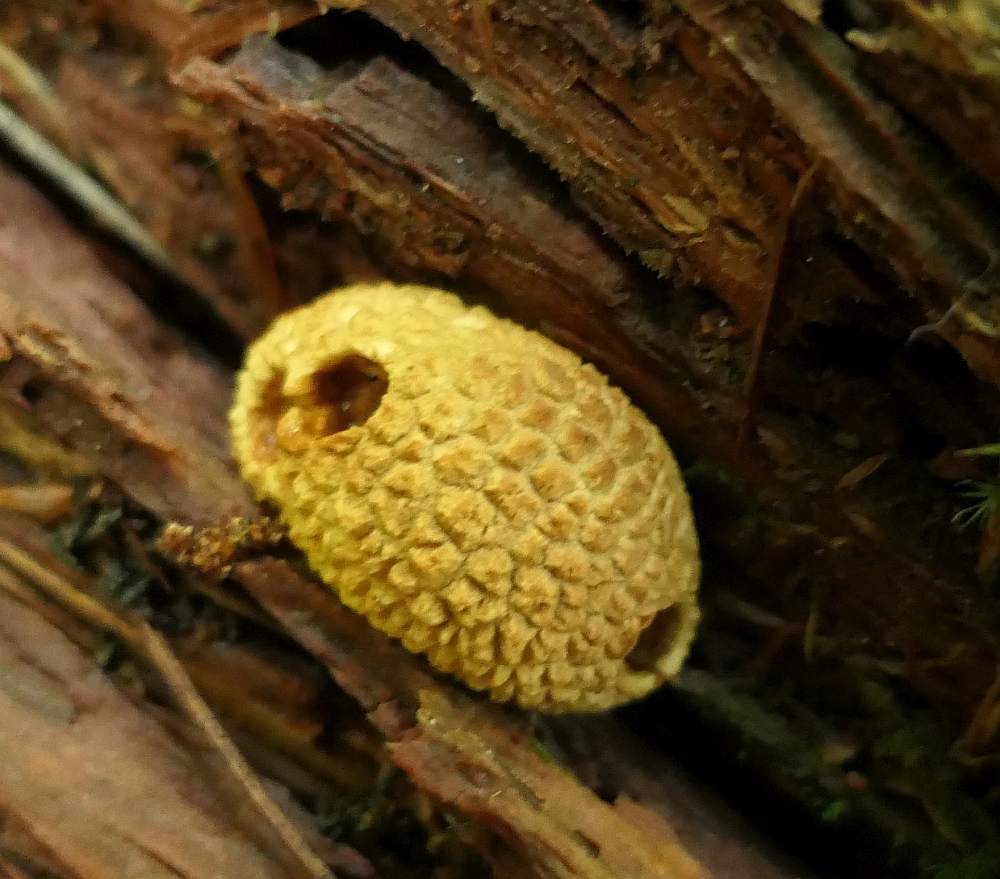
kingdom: Fungi
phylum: Basidiomycota
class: Agaricomycetes
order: Boletales
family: Sclerodermataceae
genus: Scleroderma
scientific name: Scleroderma citrinum
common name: Common earthball
